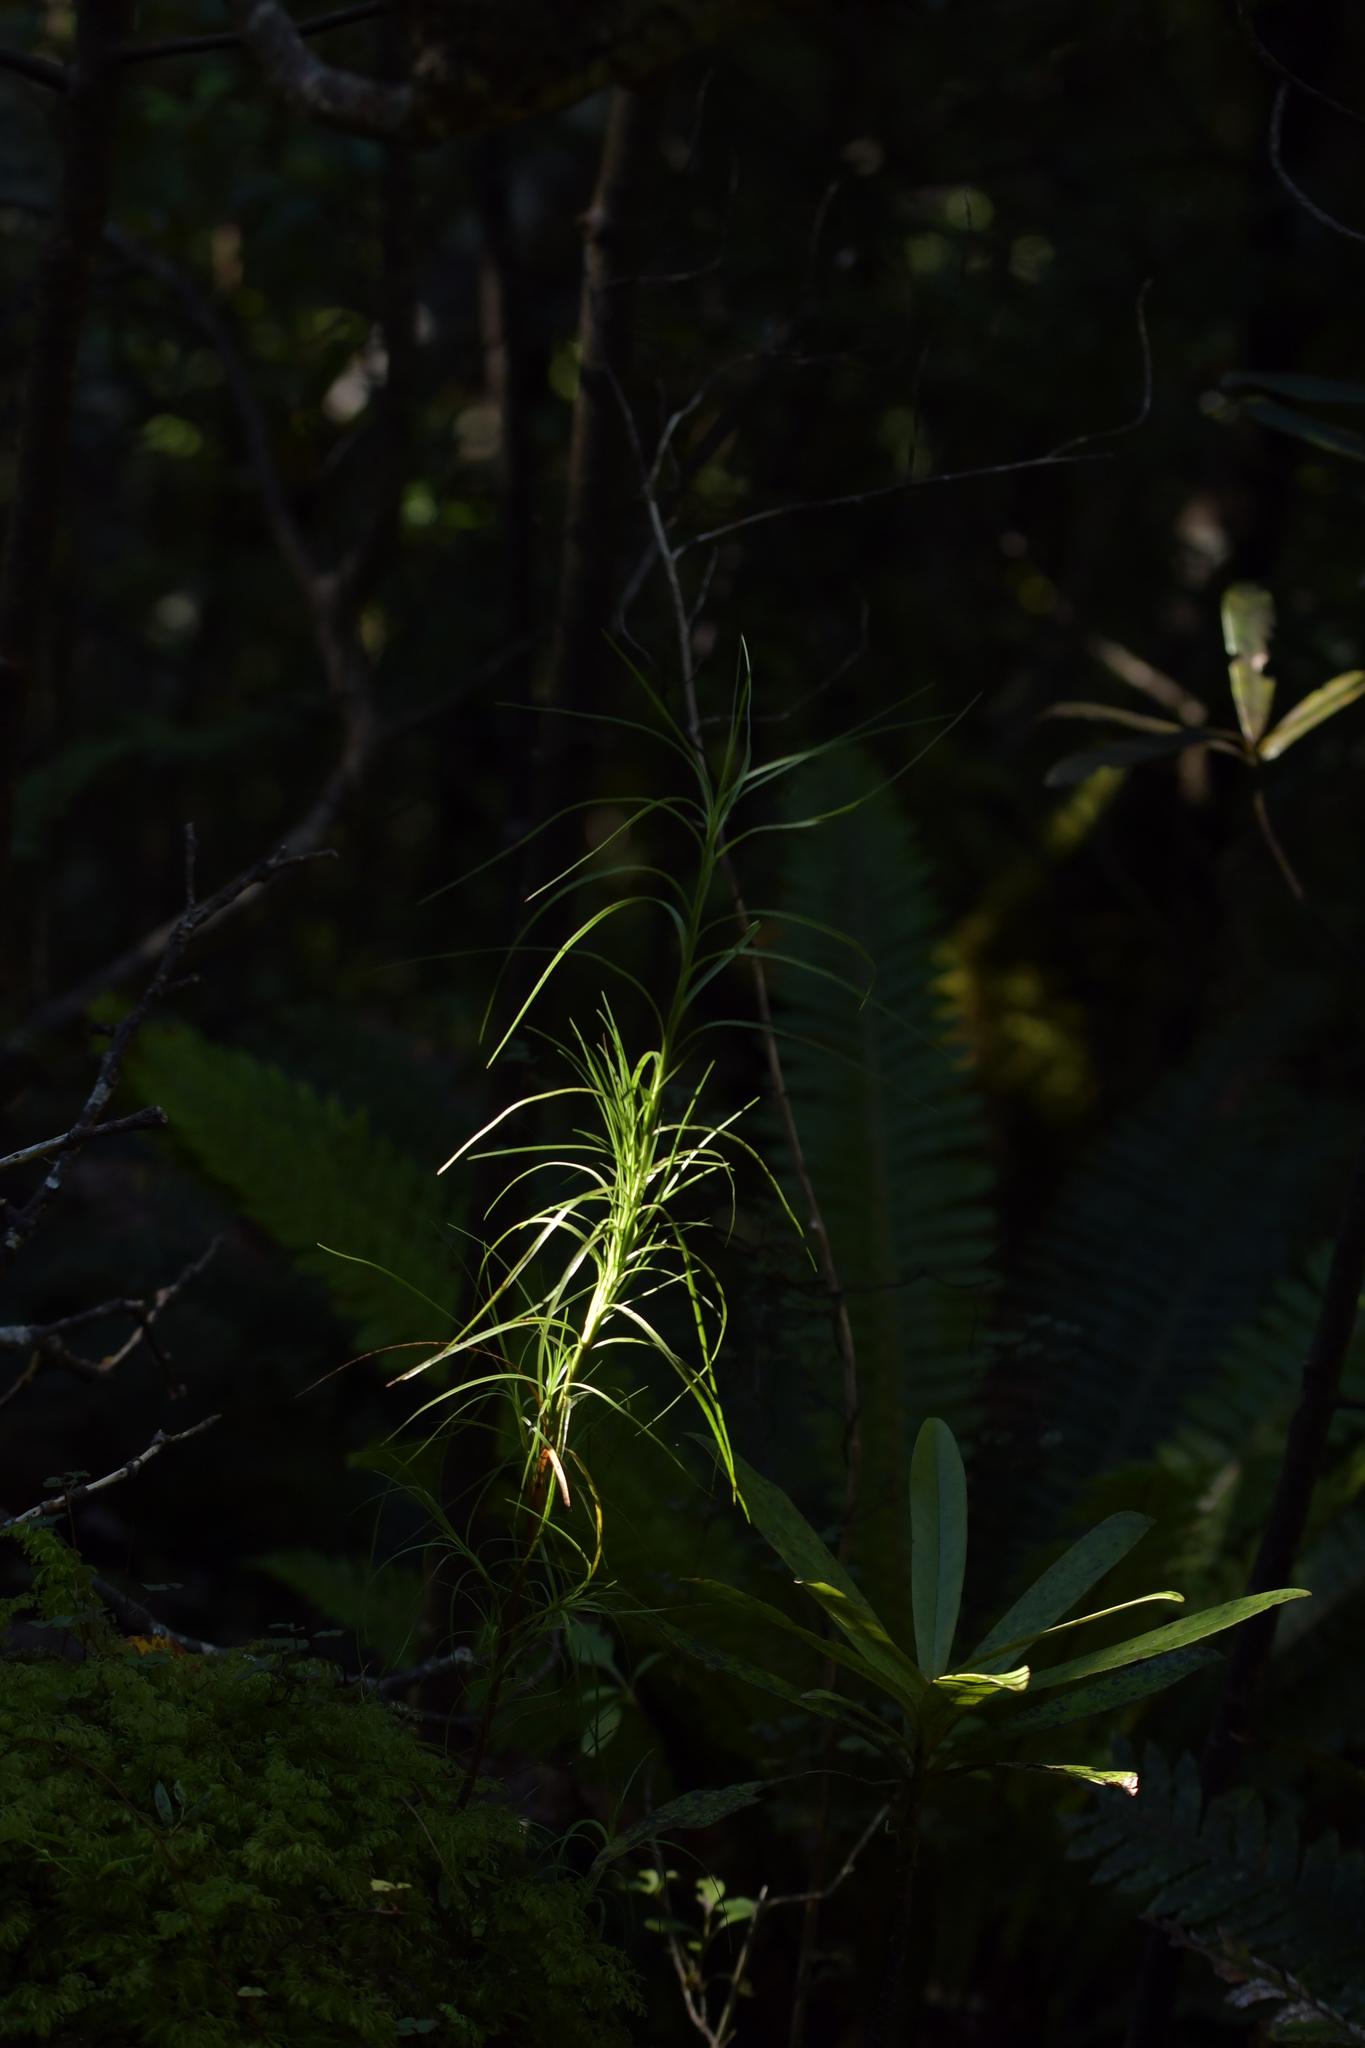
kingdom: Plantae
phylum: Tracheophyta
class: Magnoliopsida
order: Ericales
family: Ericaceae
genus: Dracophyllum
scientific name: Dracophyllum filifolium
